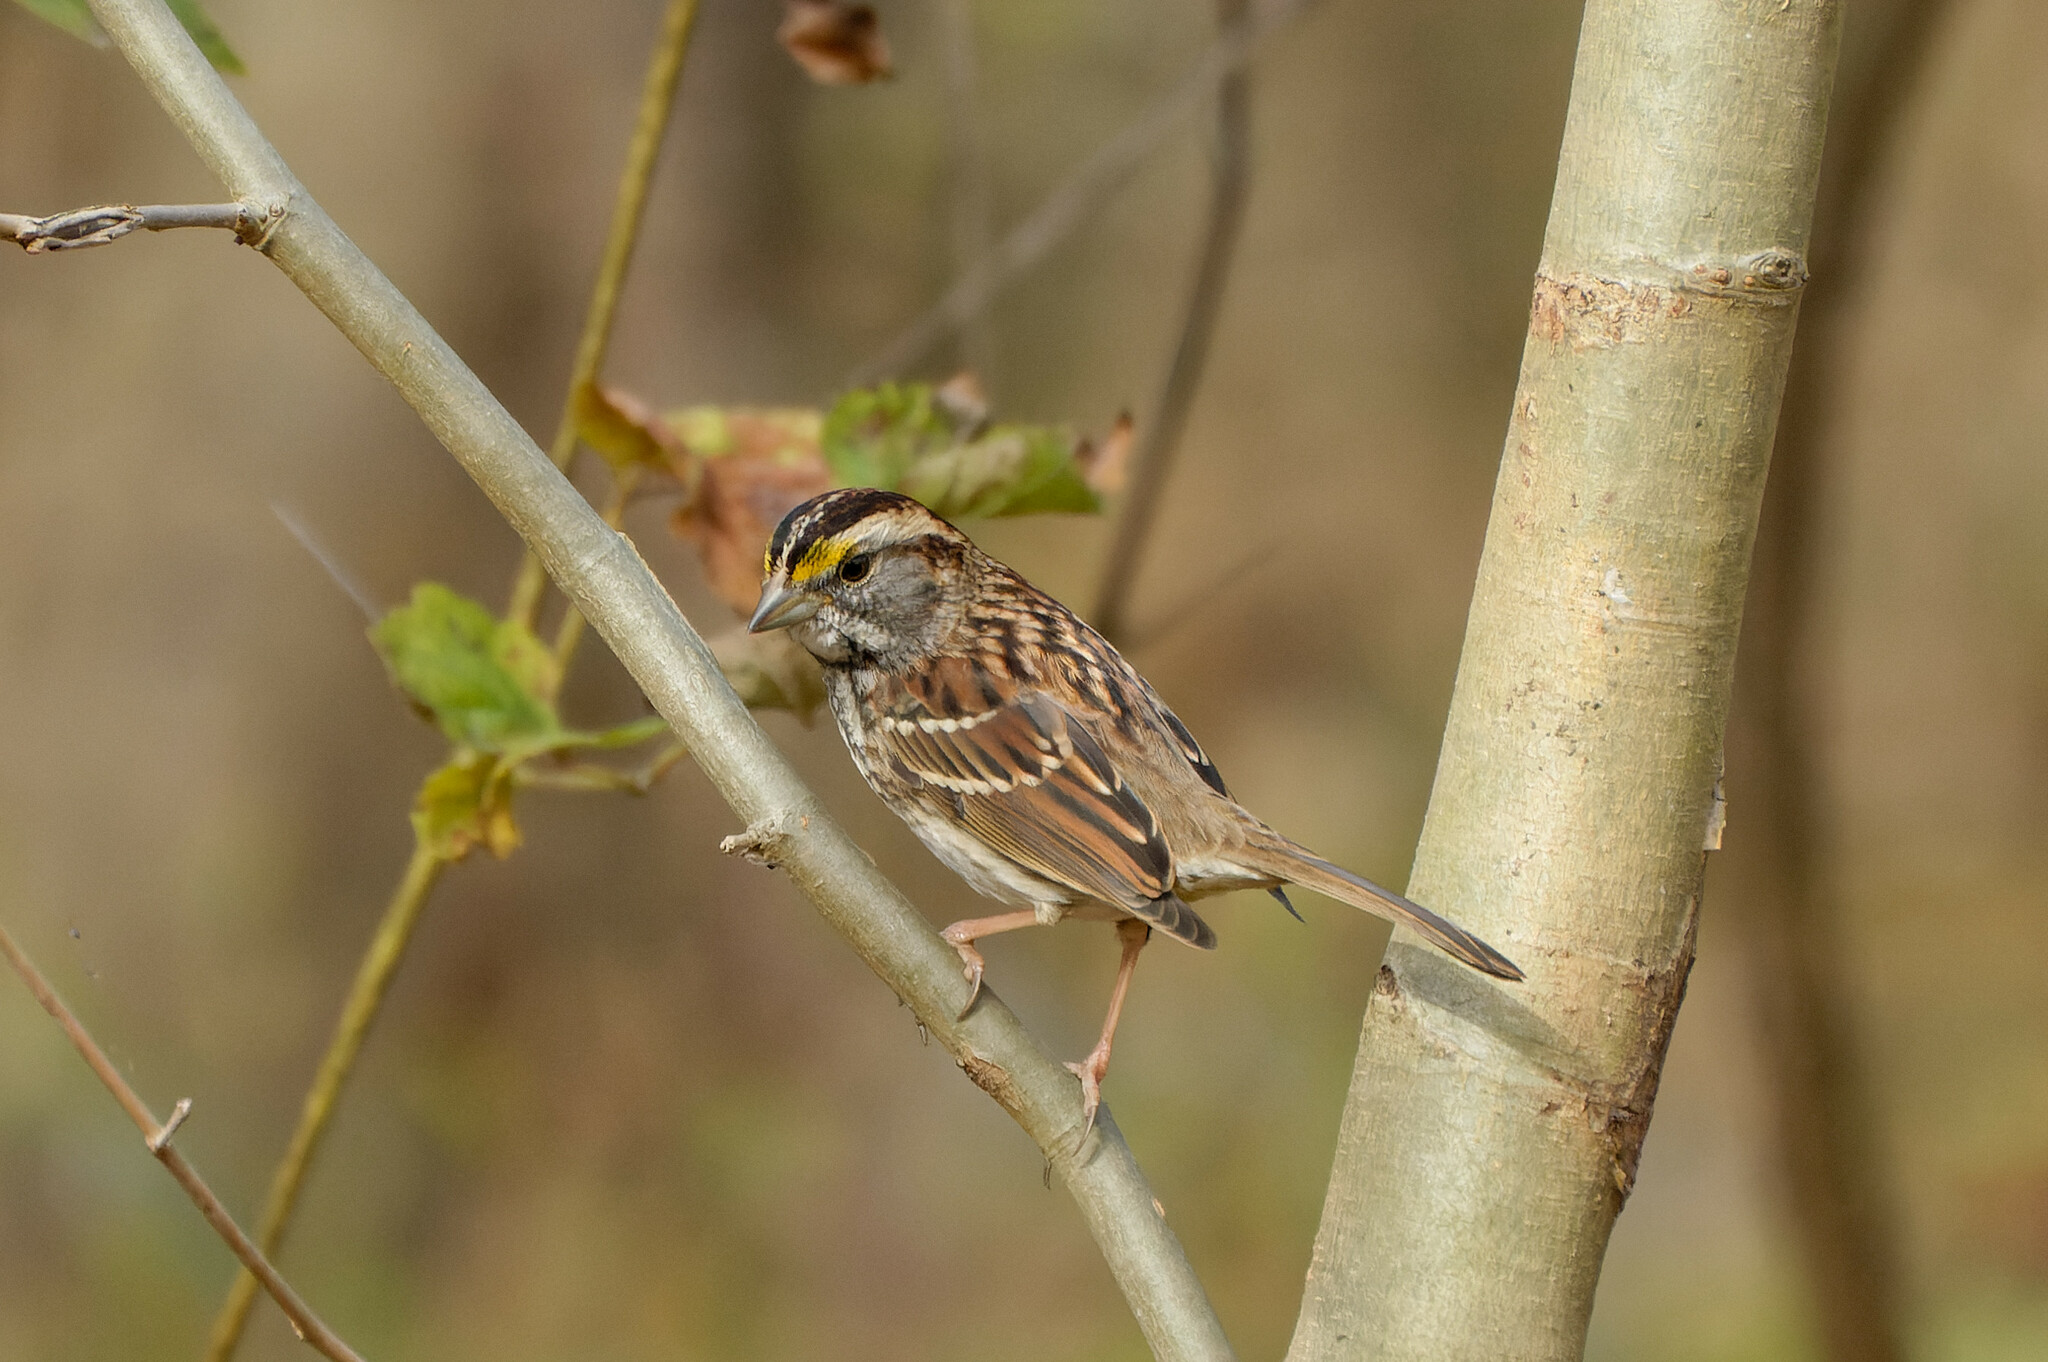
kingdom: Animalia
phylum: Chordata
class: Aves
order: Passeriformes
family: Passerellidae
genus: Zonotrichia
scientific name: Zonotrichia albicollis
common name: White-throated sparrow
